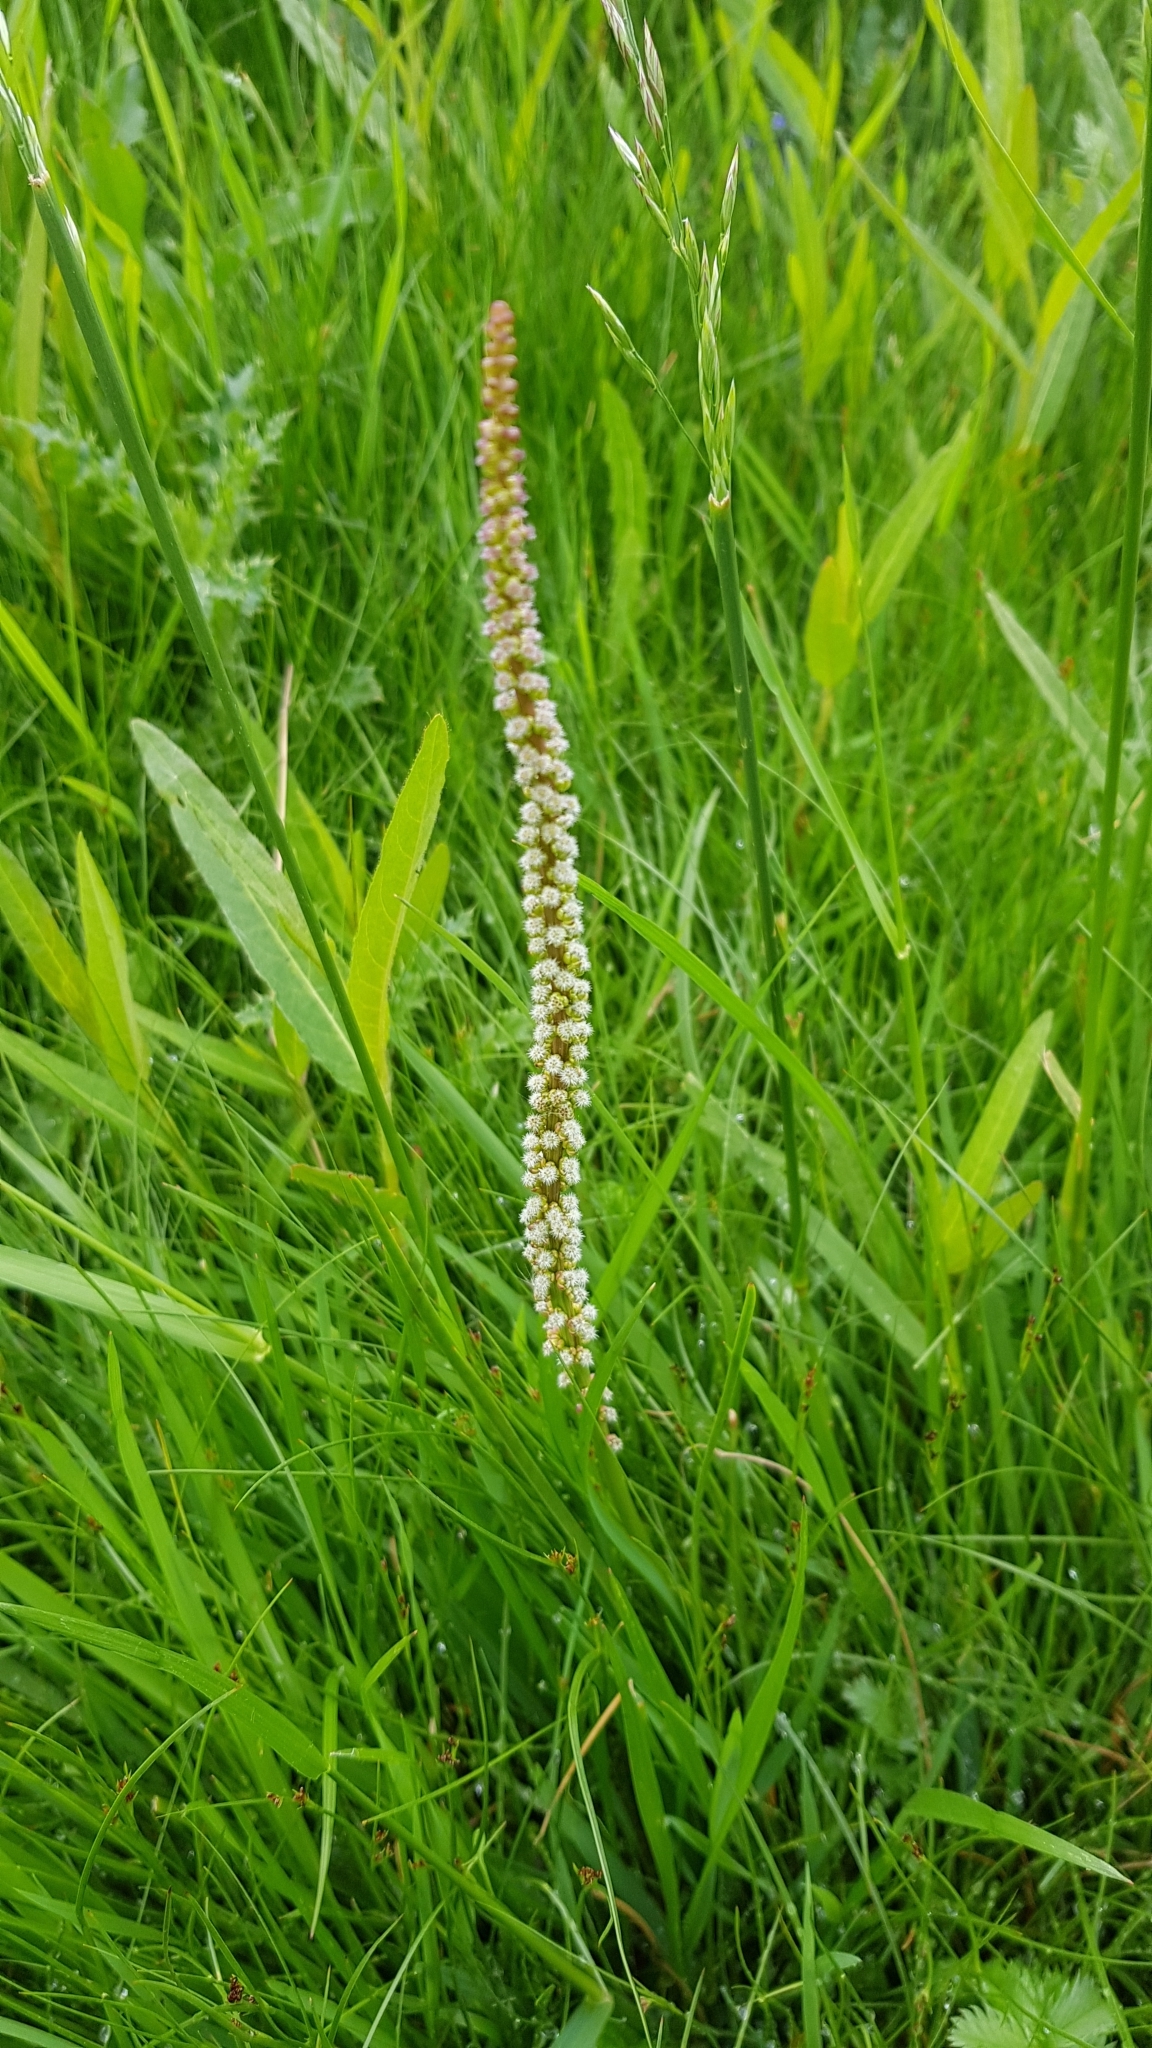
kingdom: Plantae
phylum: Tracheophyta
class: Liliopsida
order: Alismatales
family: Juncaginaceae
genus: Triglochin
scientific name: Triglochin maritima
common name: Sea arrowgrass
